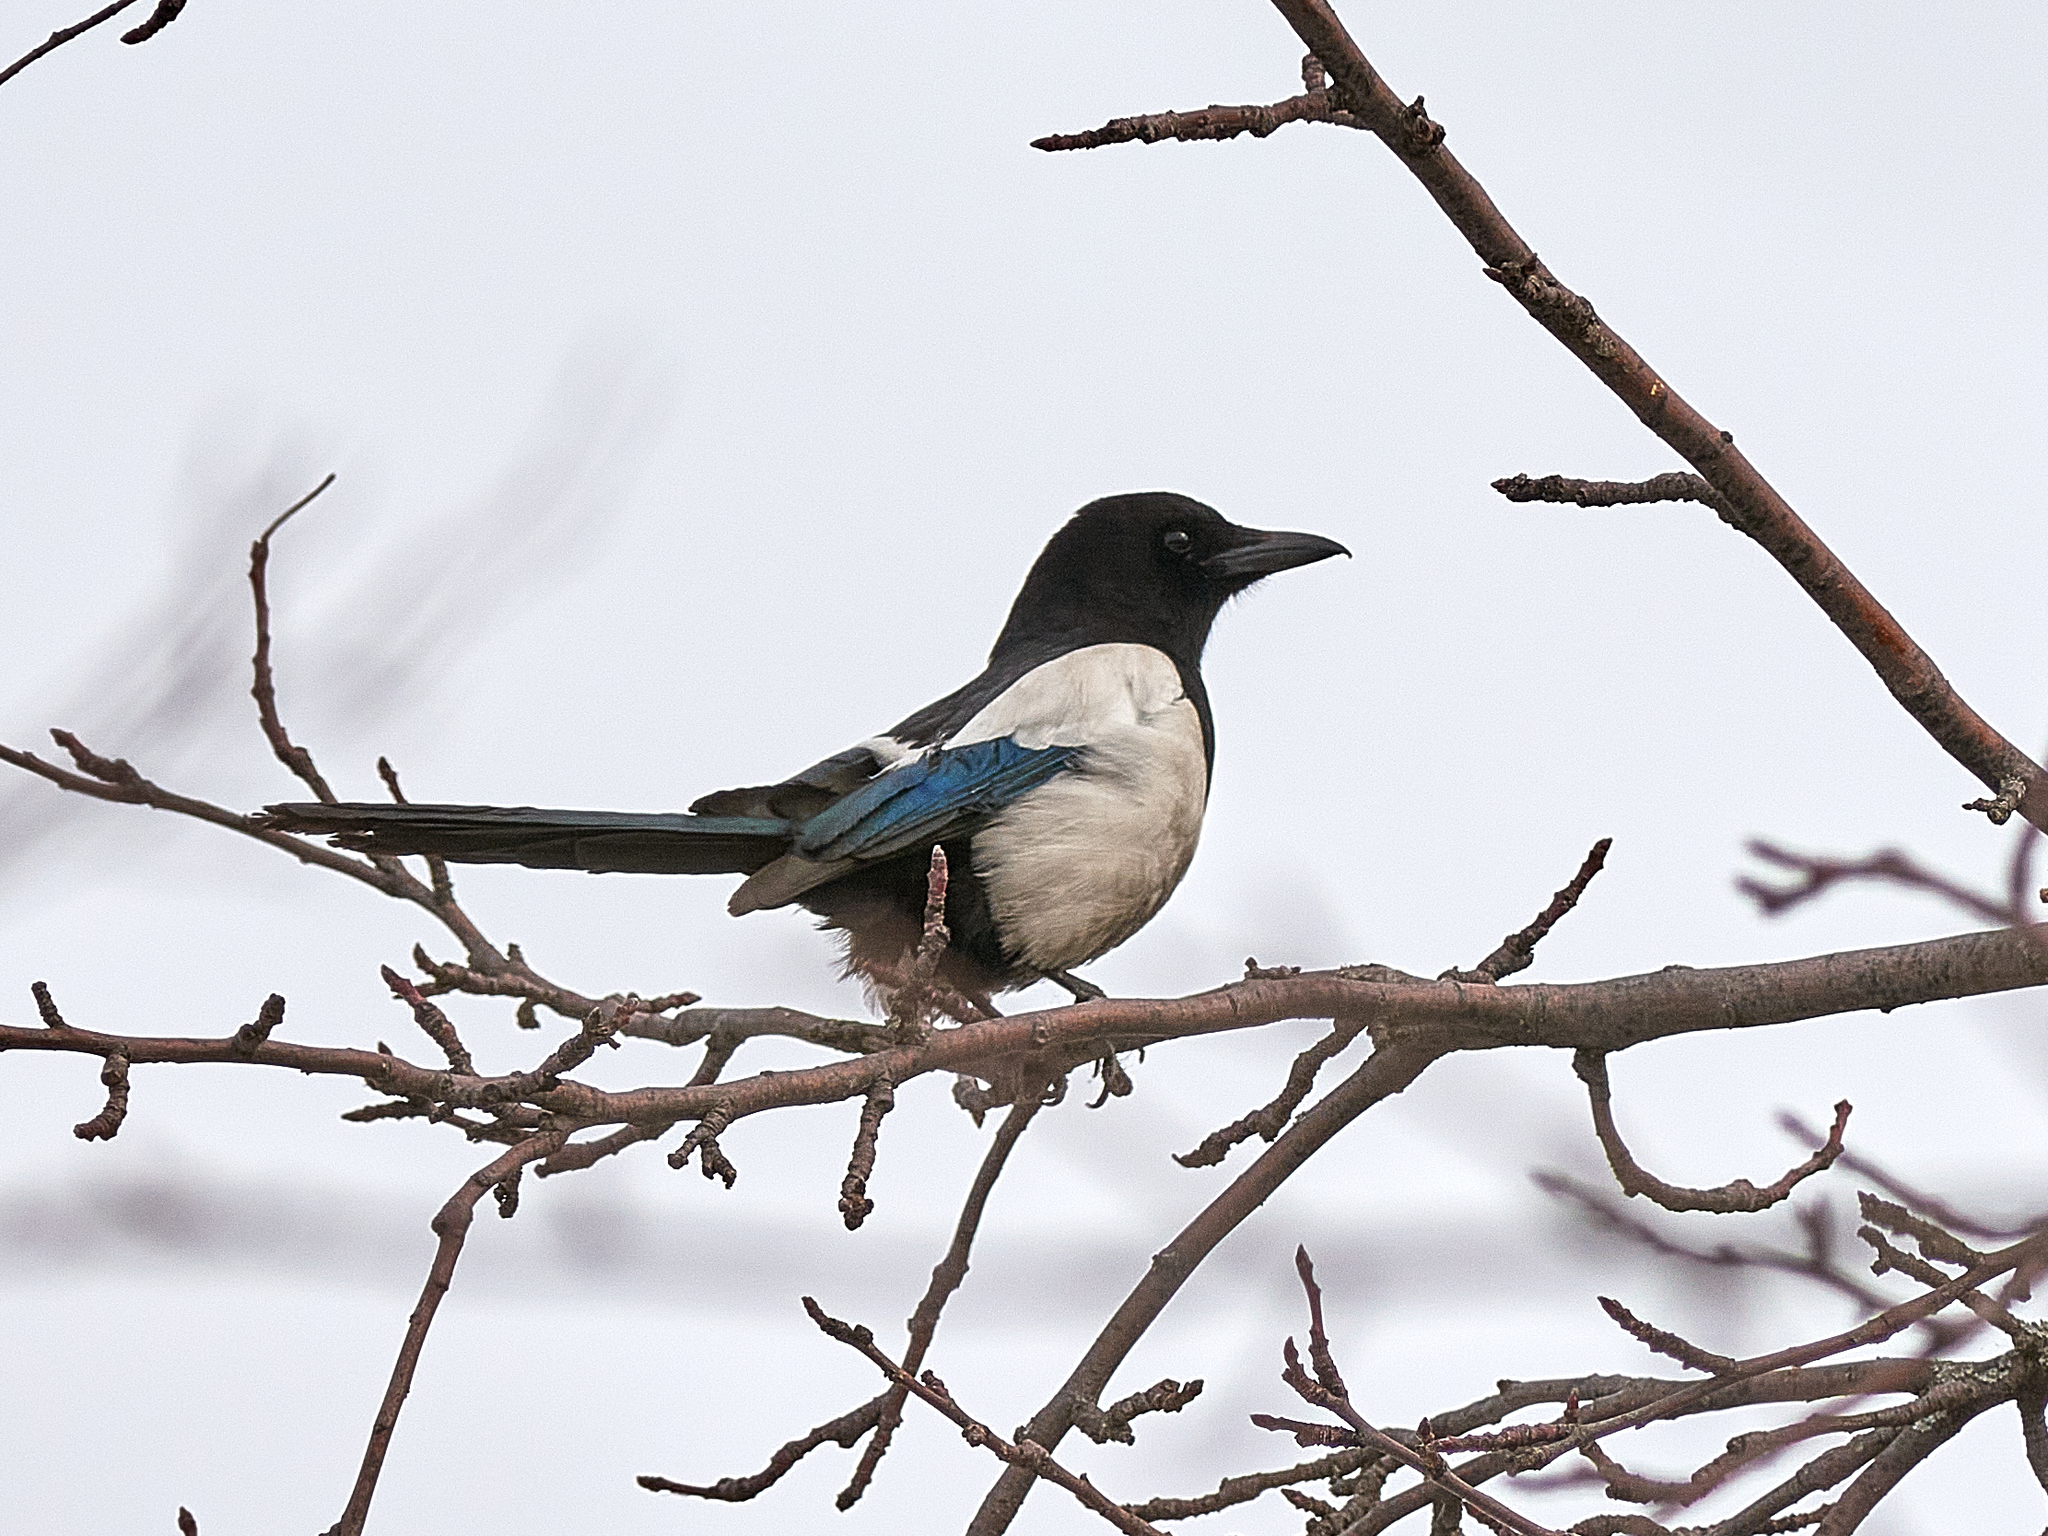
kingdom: Animalia
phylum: Chordata
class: Aves
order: Passeriformes
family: Corvidae
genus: Pica
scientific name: Pica pica
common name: Eurasian magpie
